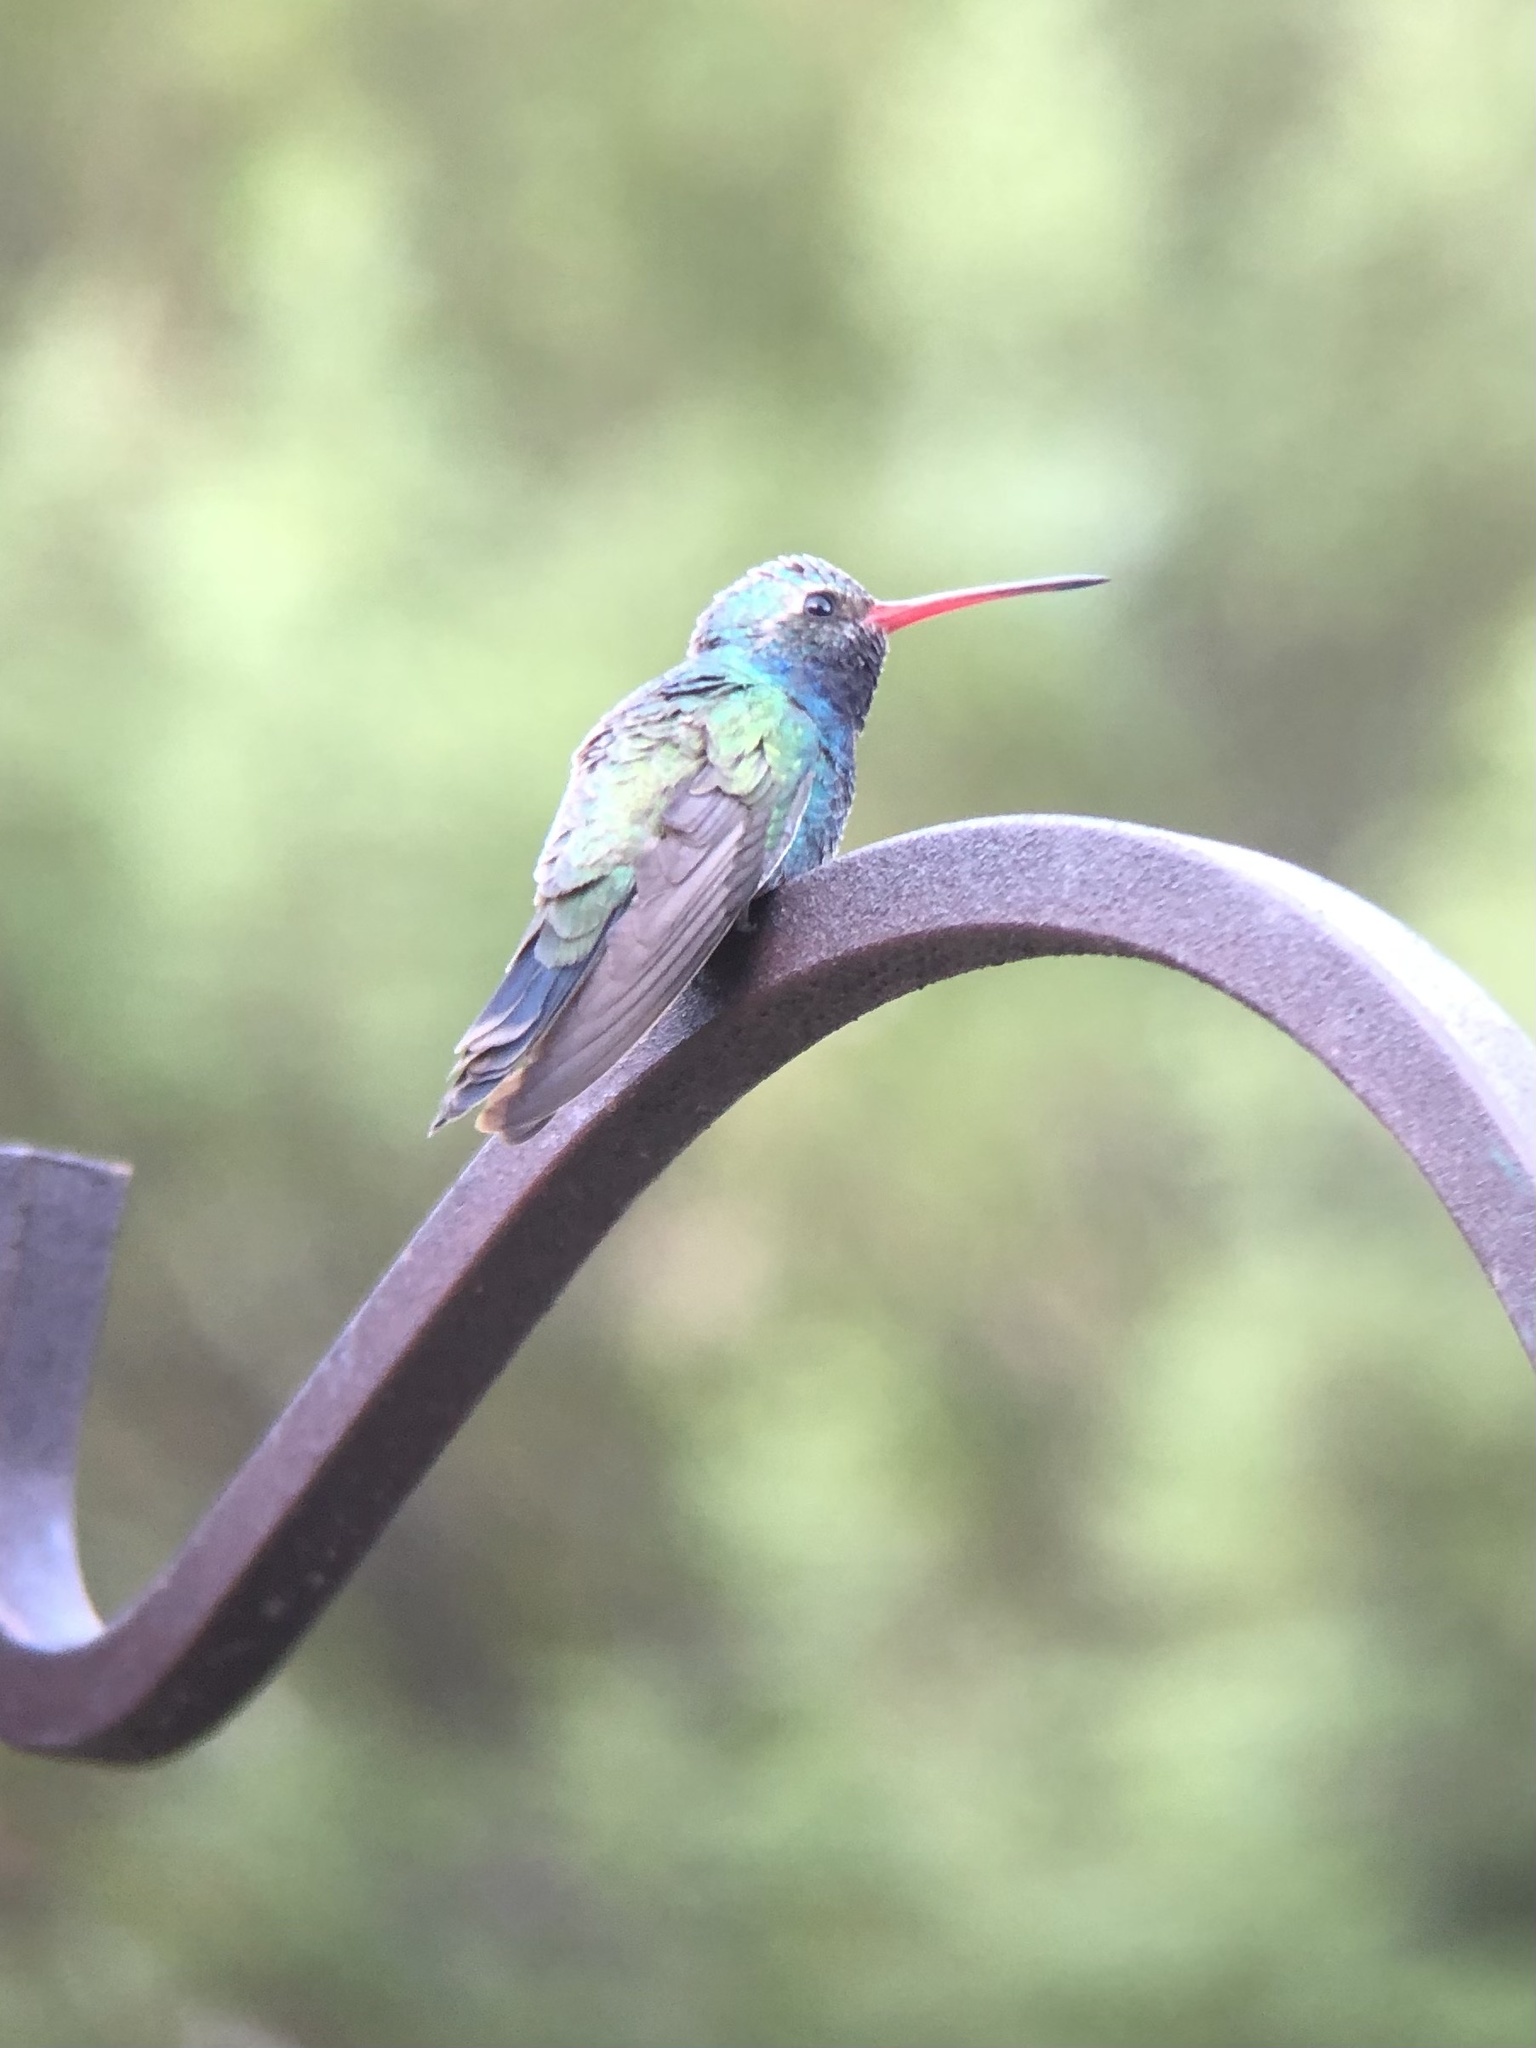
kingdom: Animalia
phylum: Chordata
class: Aves
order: Apodiformes
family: Trochilidae
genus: Cynanthus
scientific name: Cynanthus latirostris
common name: Broad-billed hummingbird
